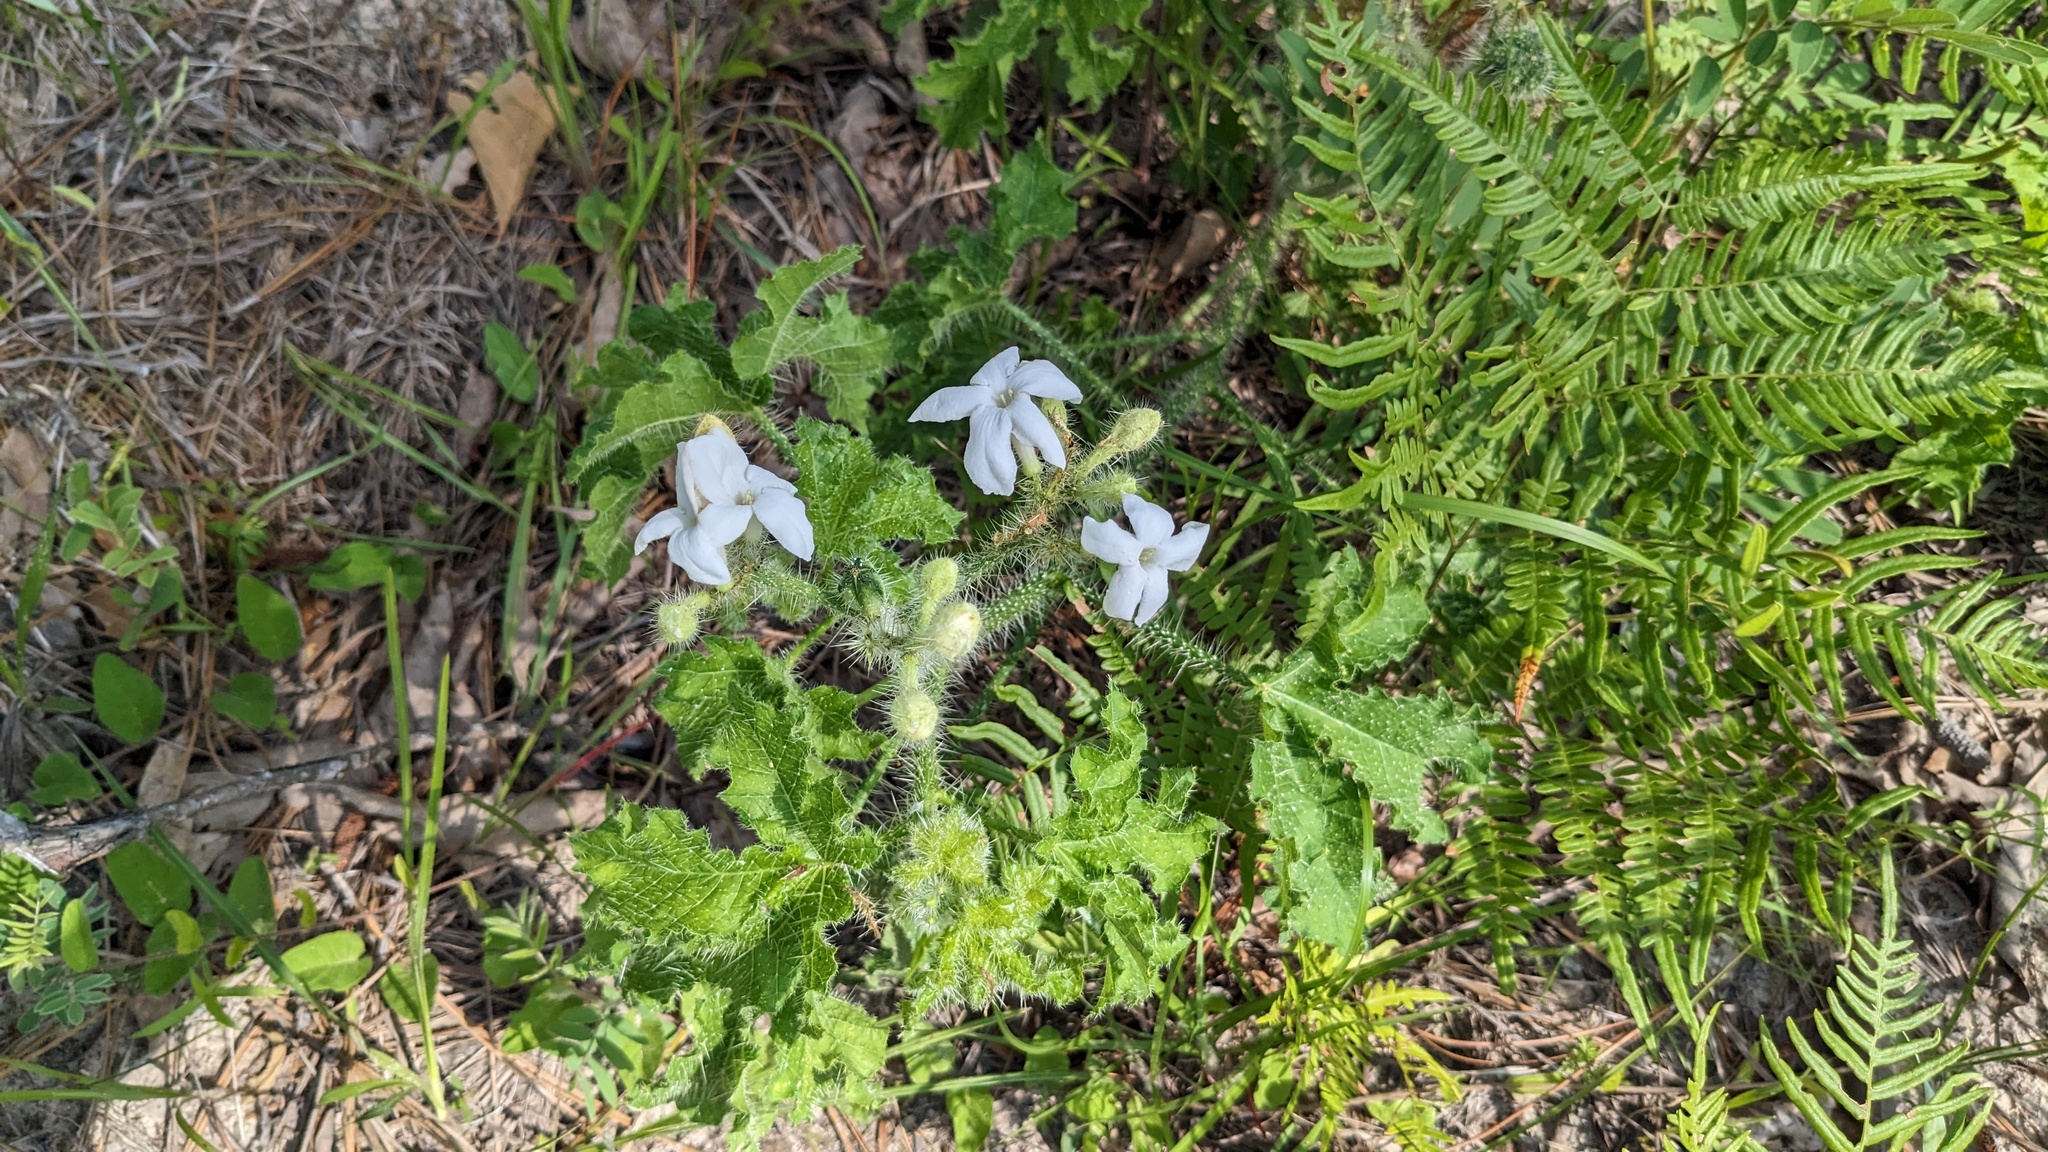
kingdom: Plantae
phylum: Tracheophyta
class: Magnoliopsida
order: Malpighiales
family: Euphorbiaceae
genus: Cnidoscolus
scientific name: Cnidoscolus texanus
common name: Texas bull-nettle
